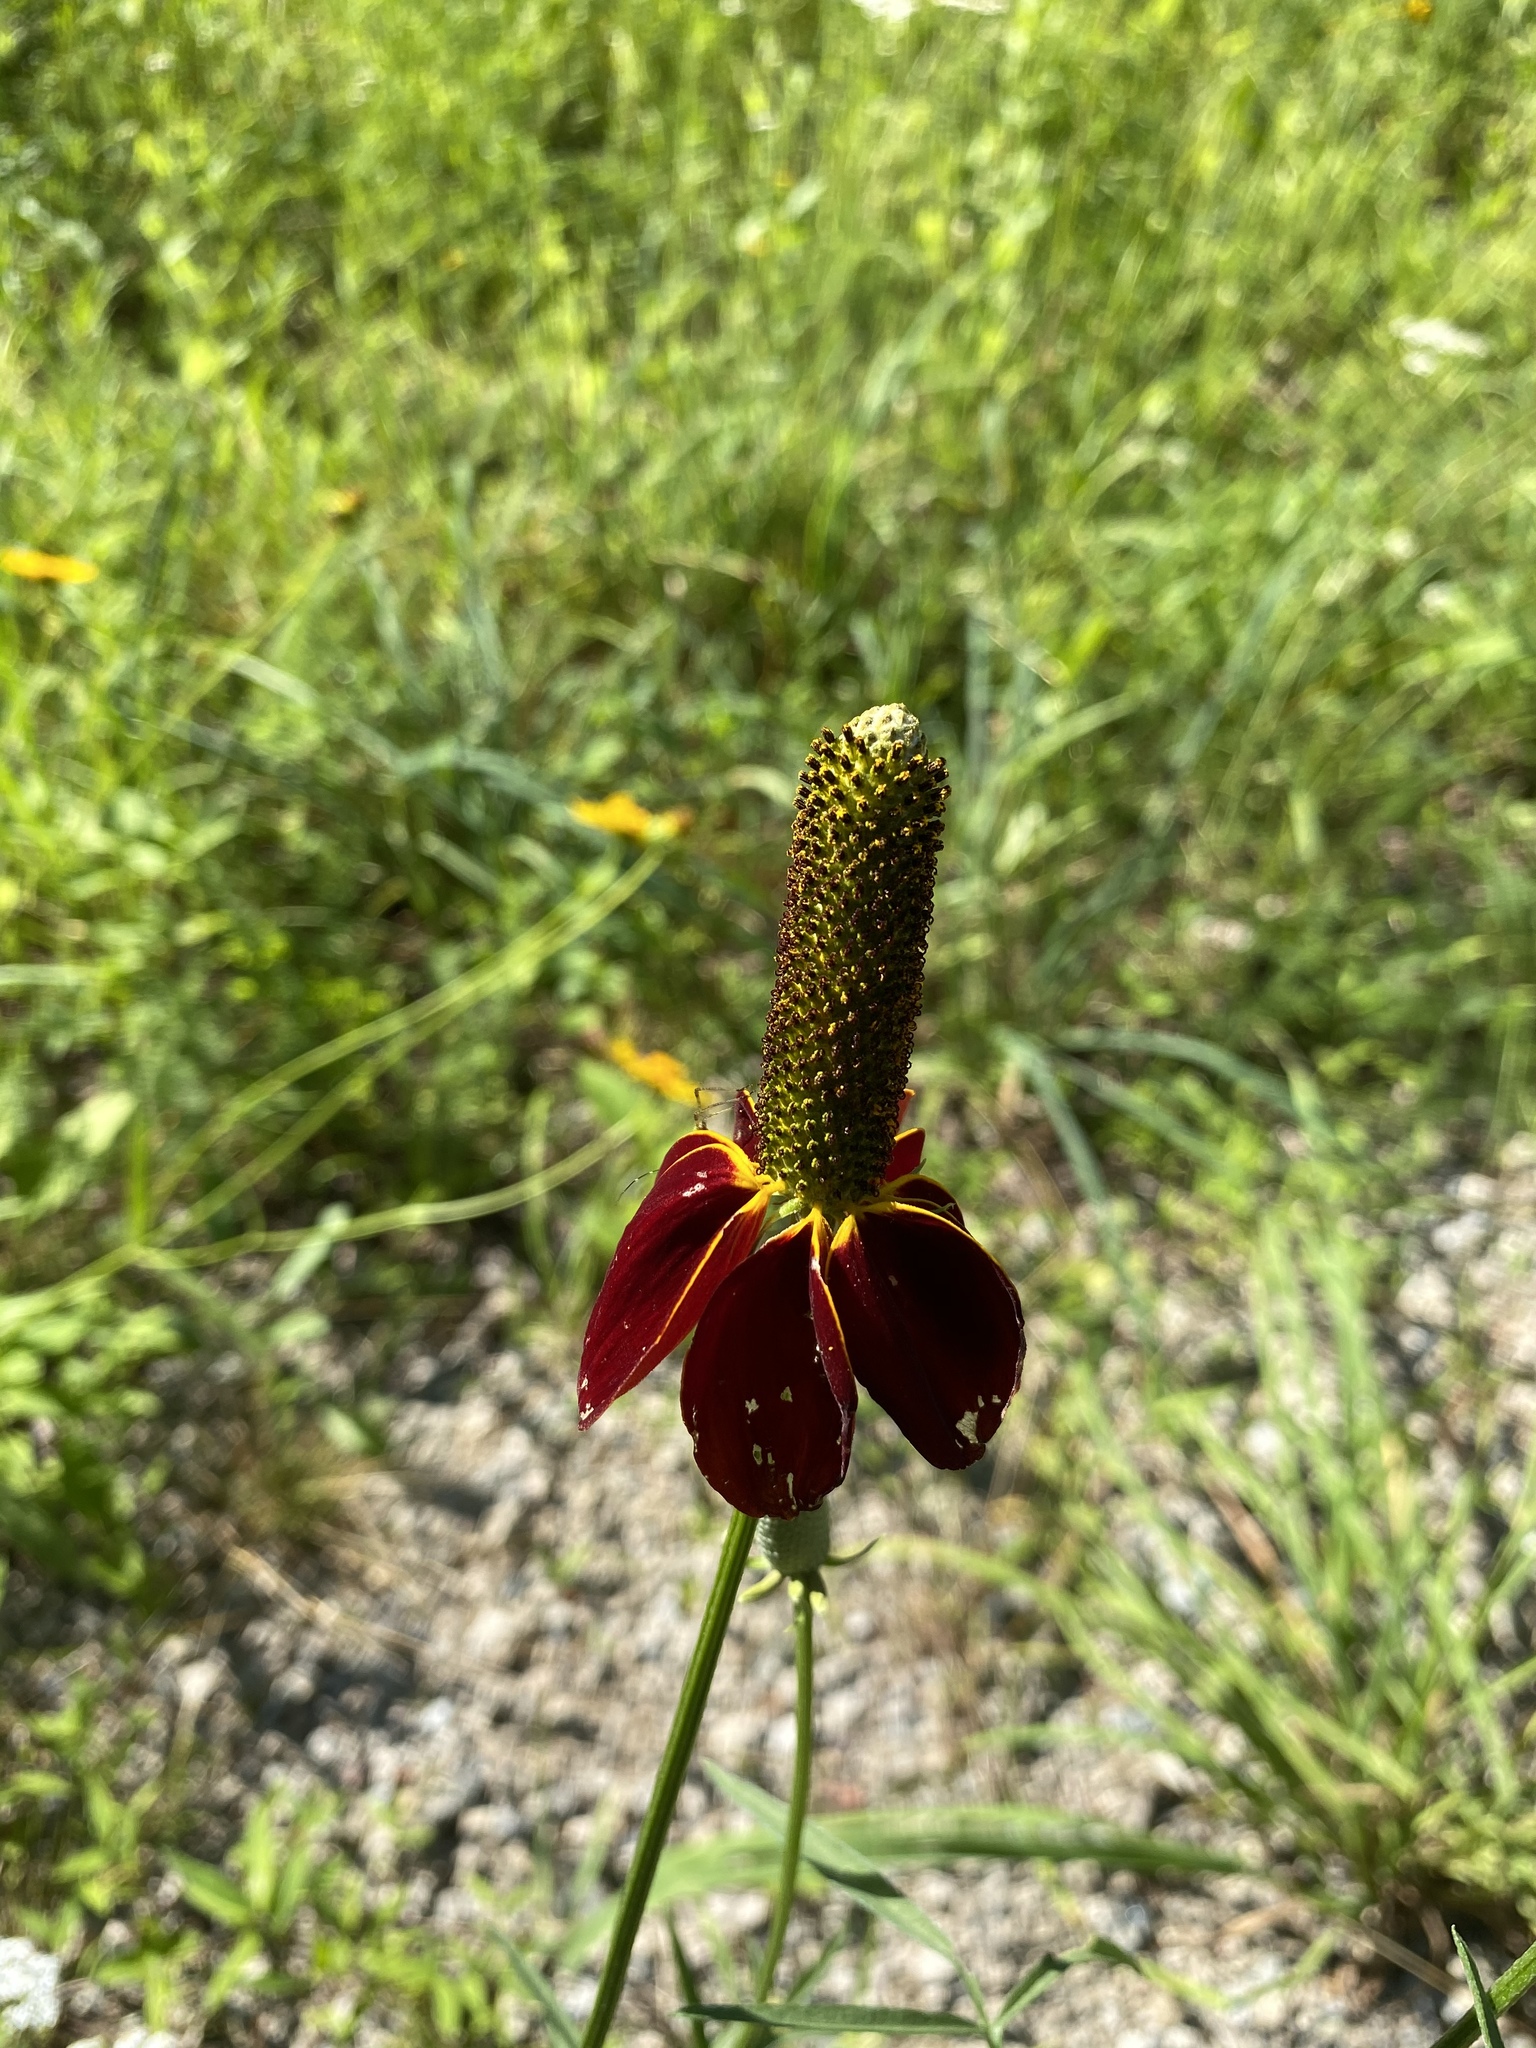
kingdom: Plantae
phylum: Tracheophyta
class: Magnoliopsida
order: Asterales
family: Asteraceae
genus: Ratibida
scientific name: Ratibida columnifera
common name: Prairie coneflower
